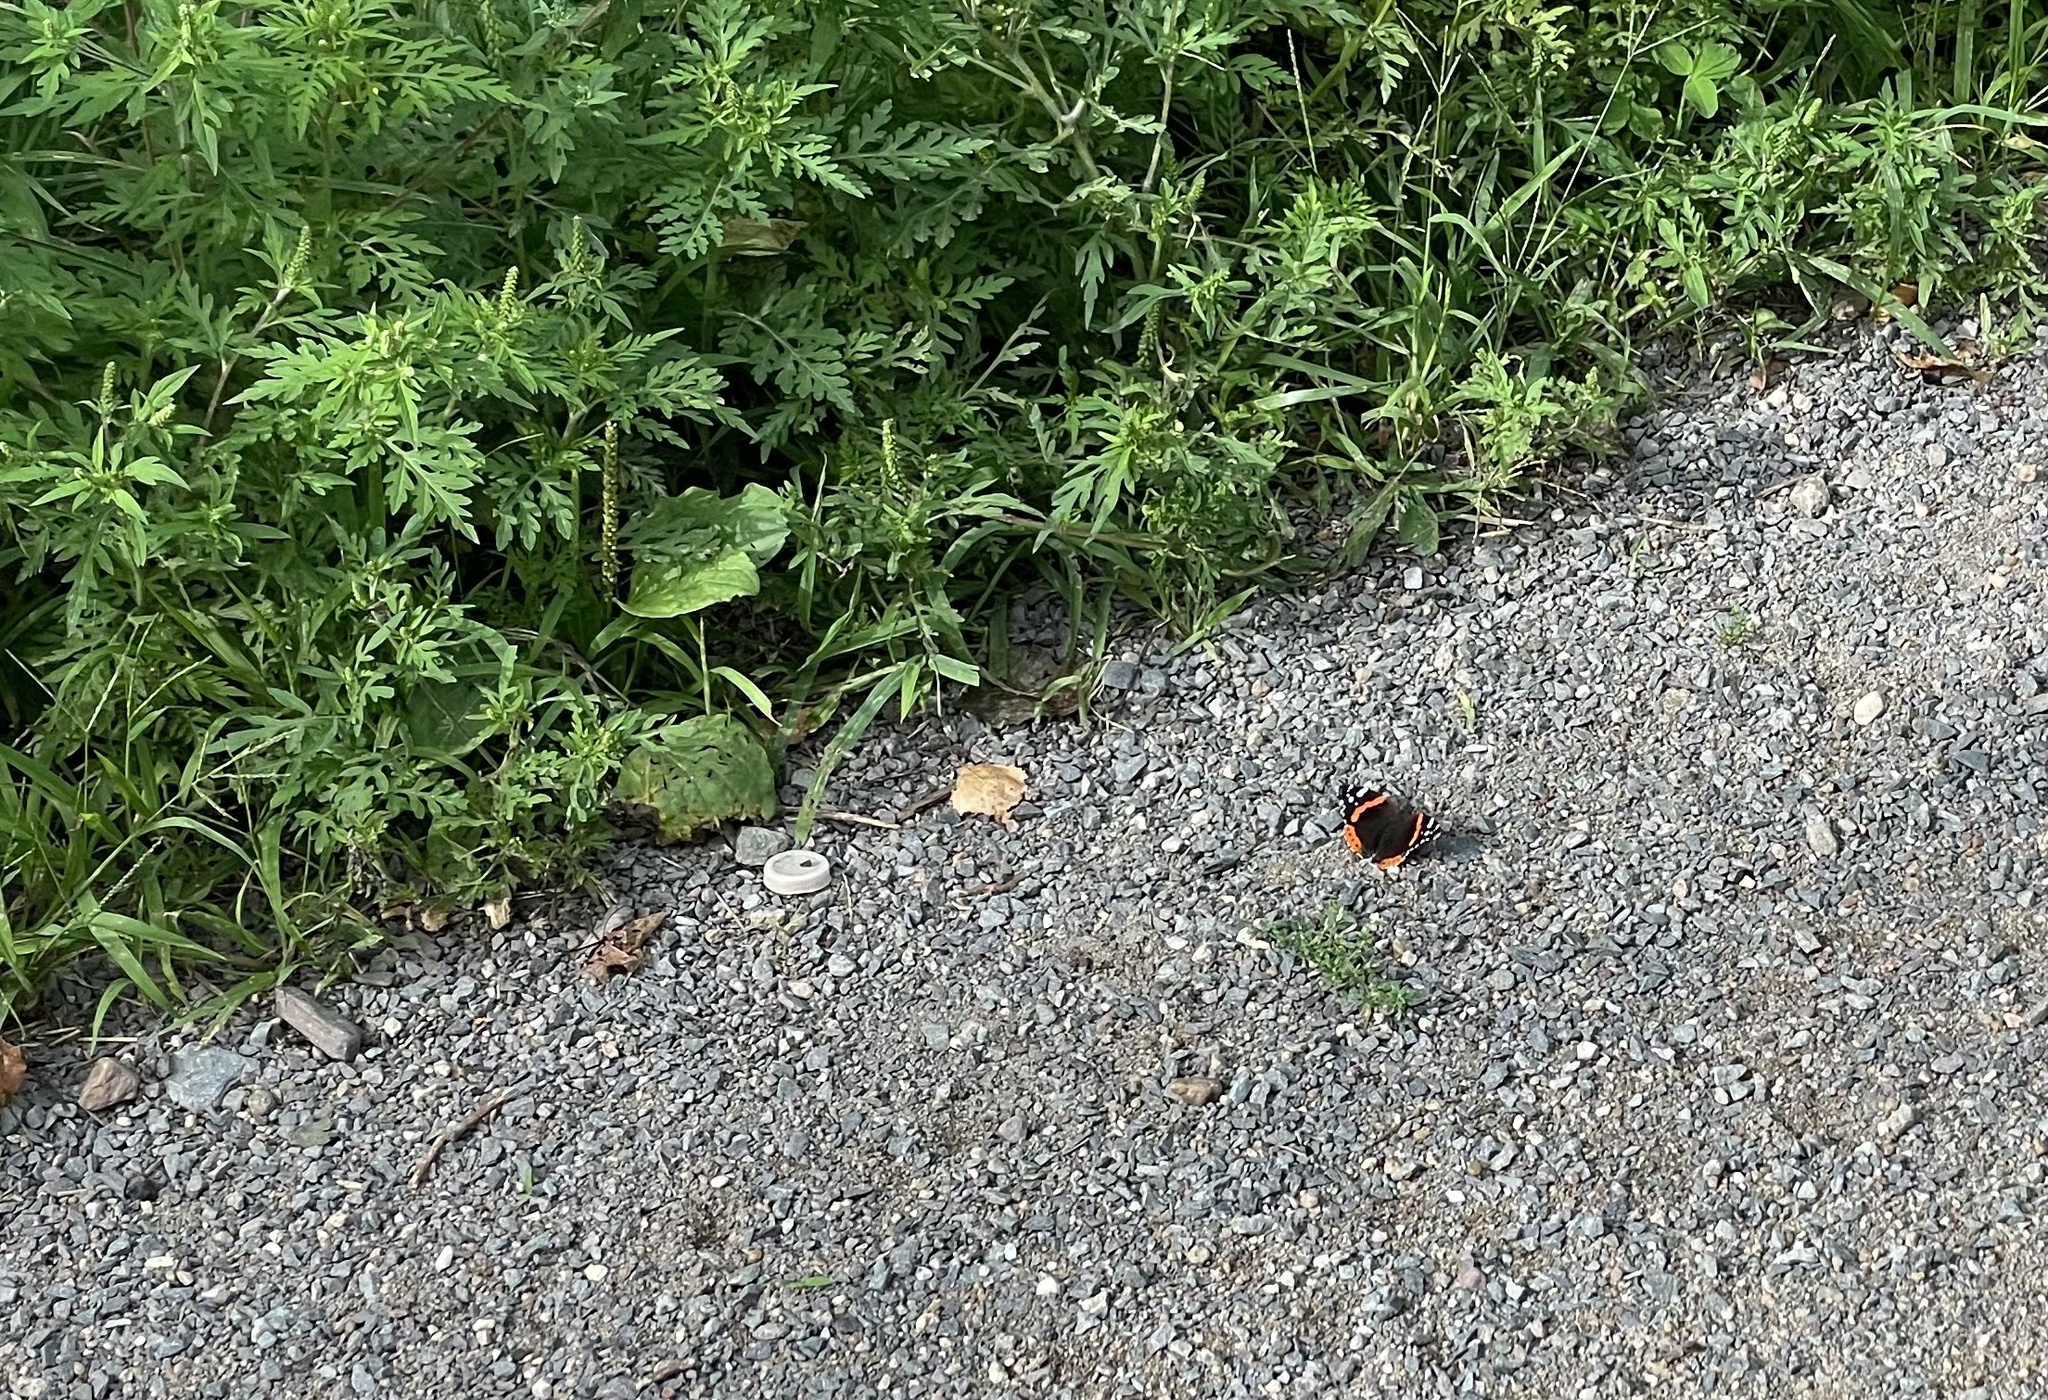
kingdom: Animalia
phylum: Arthropoda
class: Insecta
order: Lepidoptera
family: Nymphalidae
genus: Vanessa
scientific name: Vanessa atalanta
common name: Red admiral
